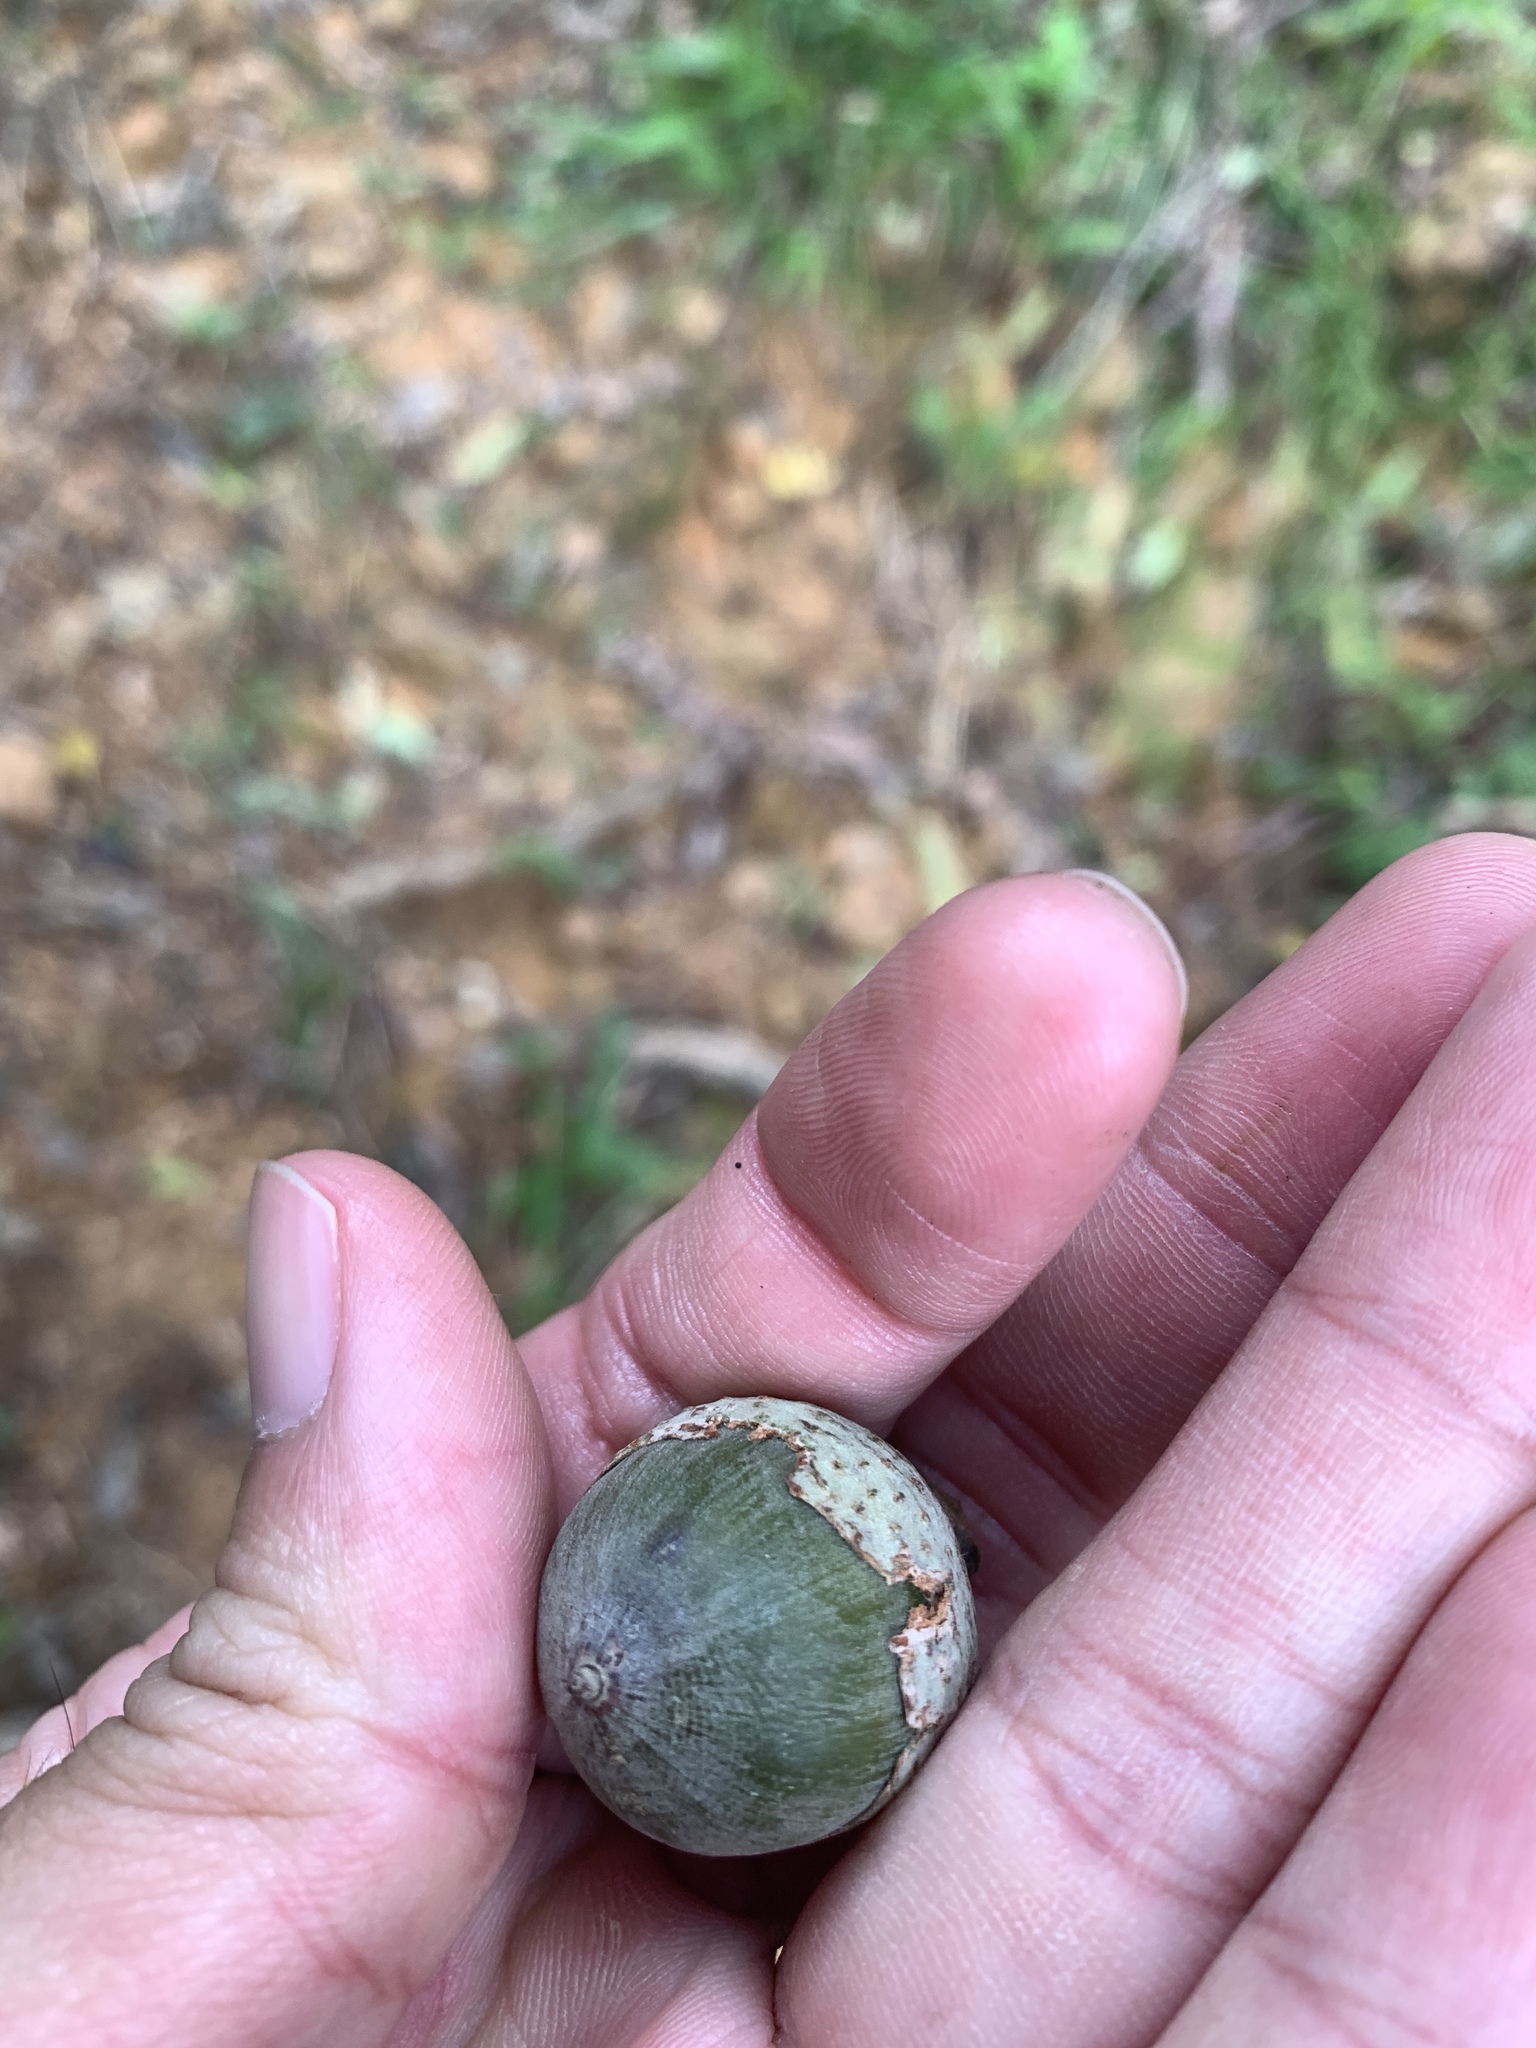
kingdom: Plantae
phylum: Tracheophyta
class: Magnoliopsida
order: Fagales
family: Fagaceae
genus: Lithocarpus
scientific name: Lithocarpus shinsuiensis
